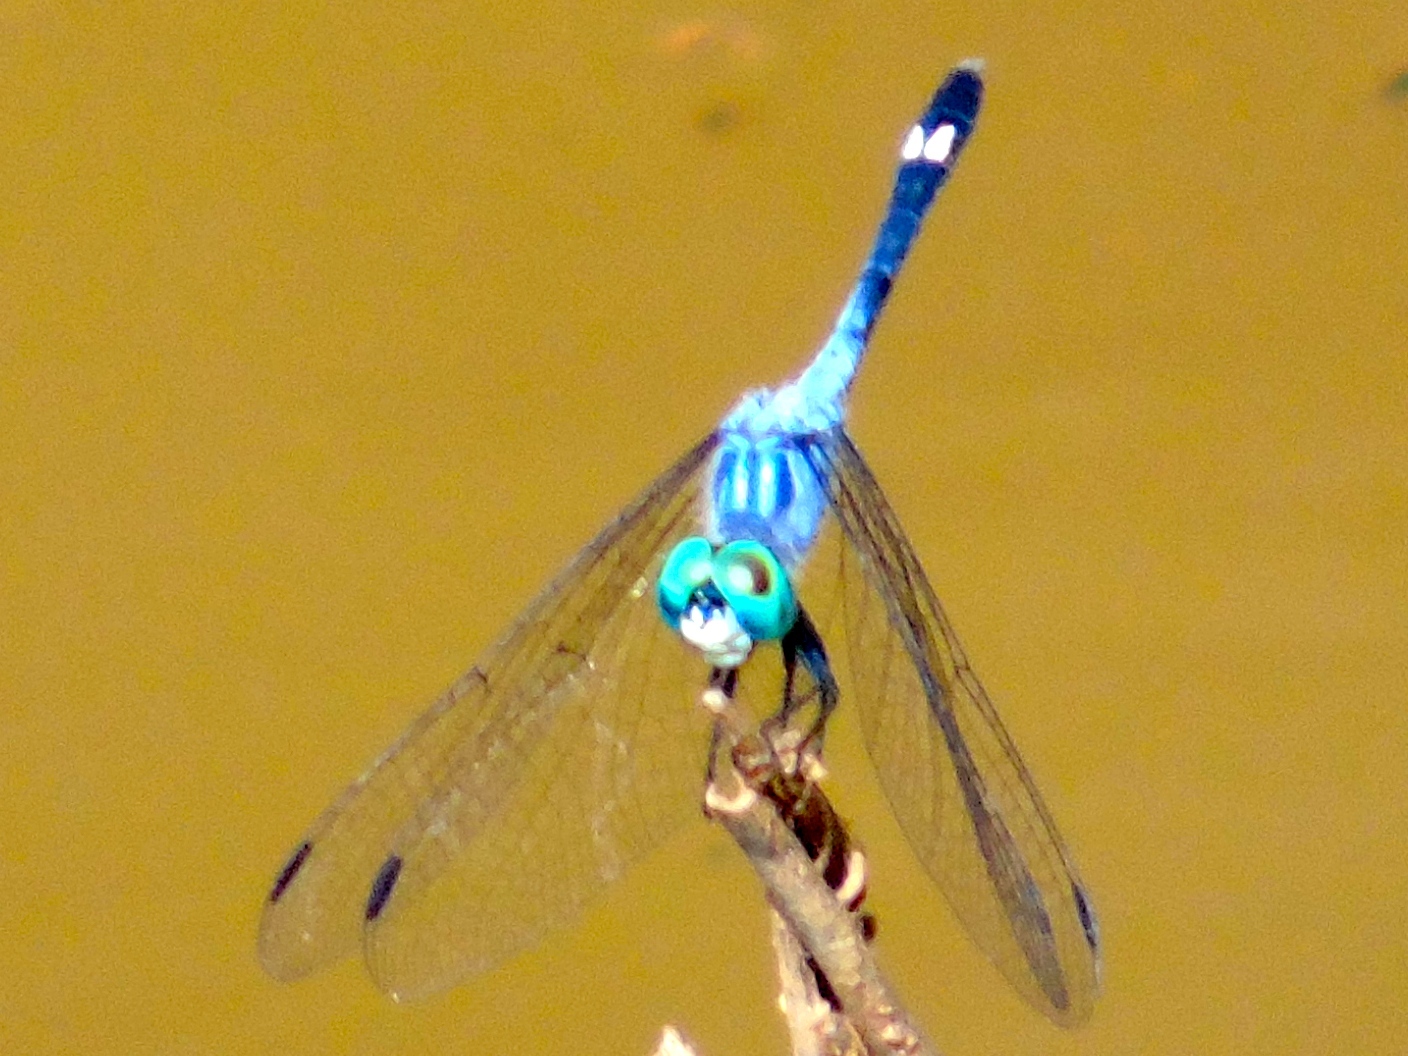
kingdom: Animalia
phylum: Arthropoda
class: Insecta
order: Odonata
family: Libellulidae
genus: Micrathyria
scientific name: Micrathyria aequalis
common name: Spot-tailed dasher
